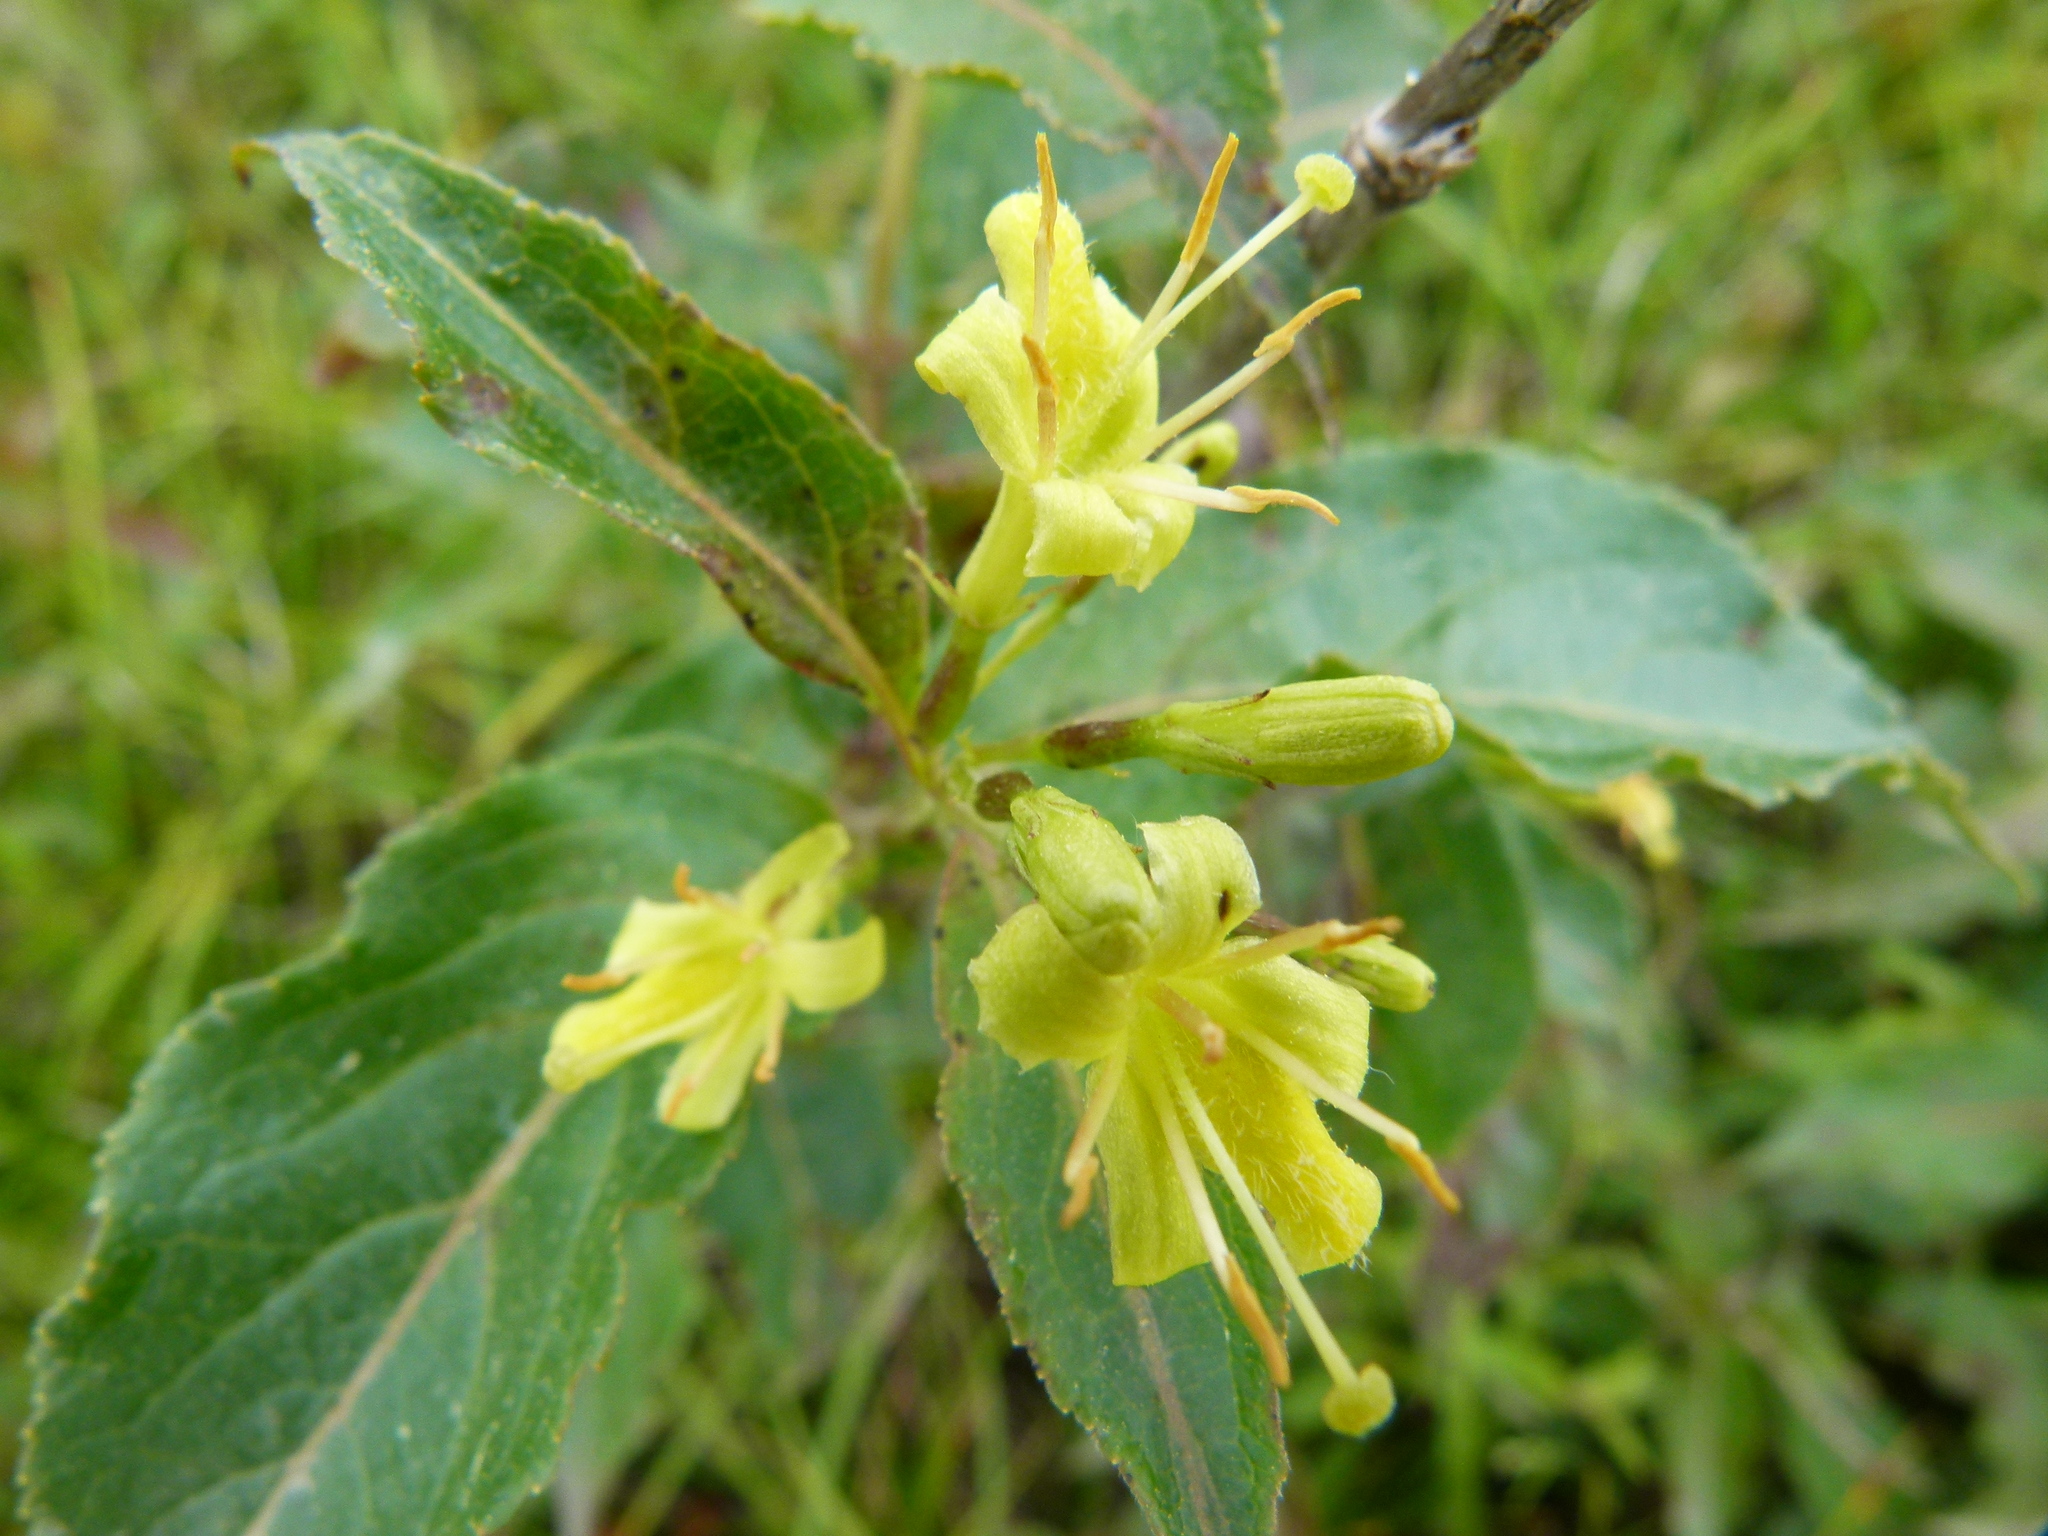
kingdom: Plantae
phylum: Tracheophyta
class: Magnoliopsida
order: Dipsacales
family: Caprifoliaceae
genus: Diervilla
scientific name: Diervilla lonicera
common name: Bush-honeysuckle
